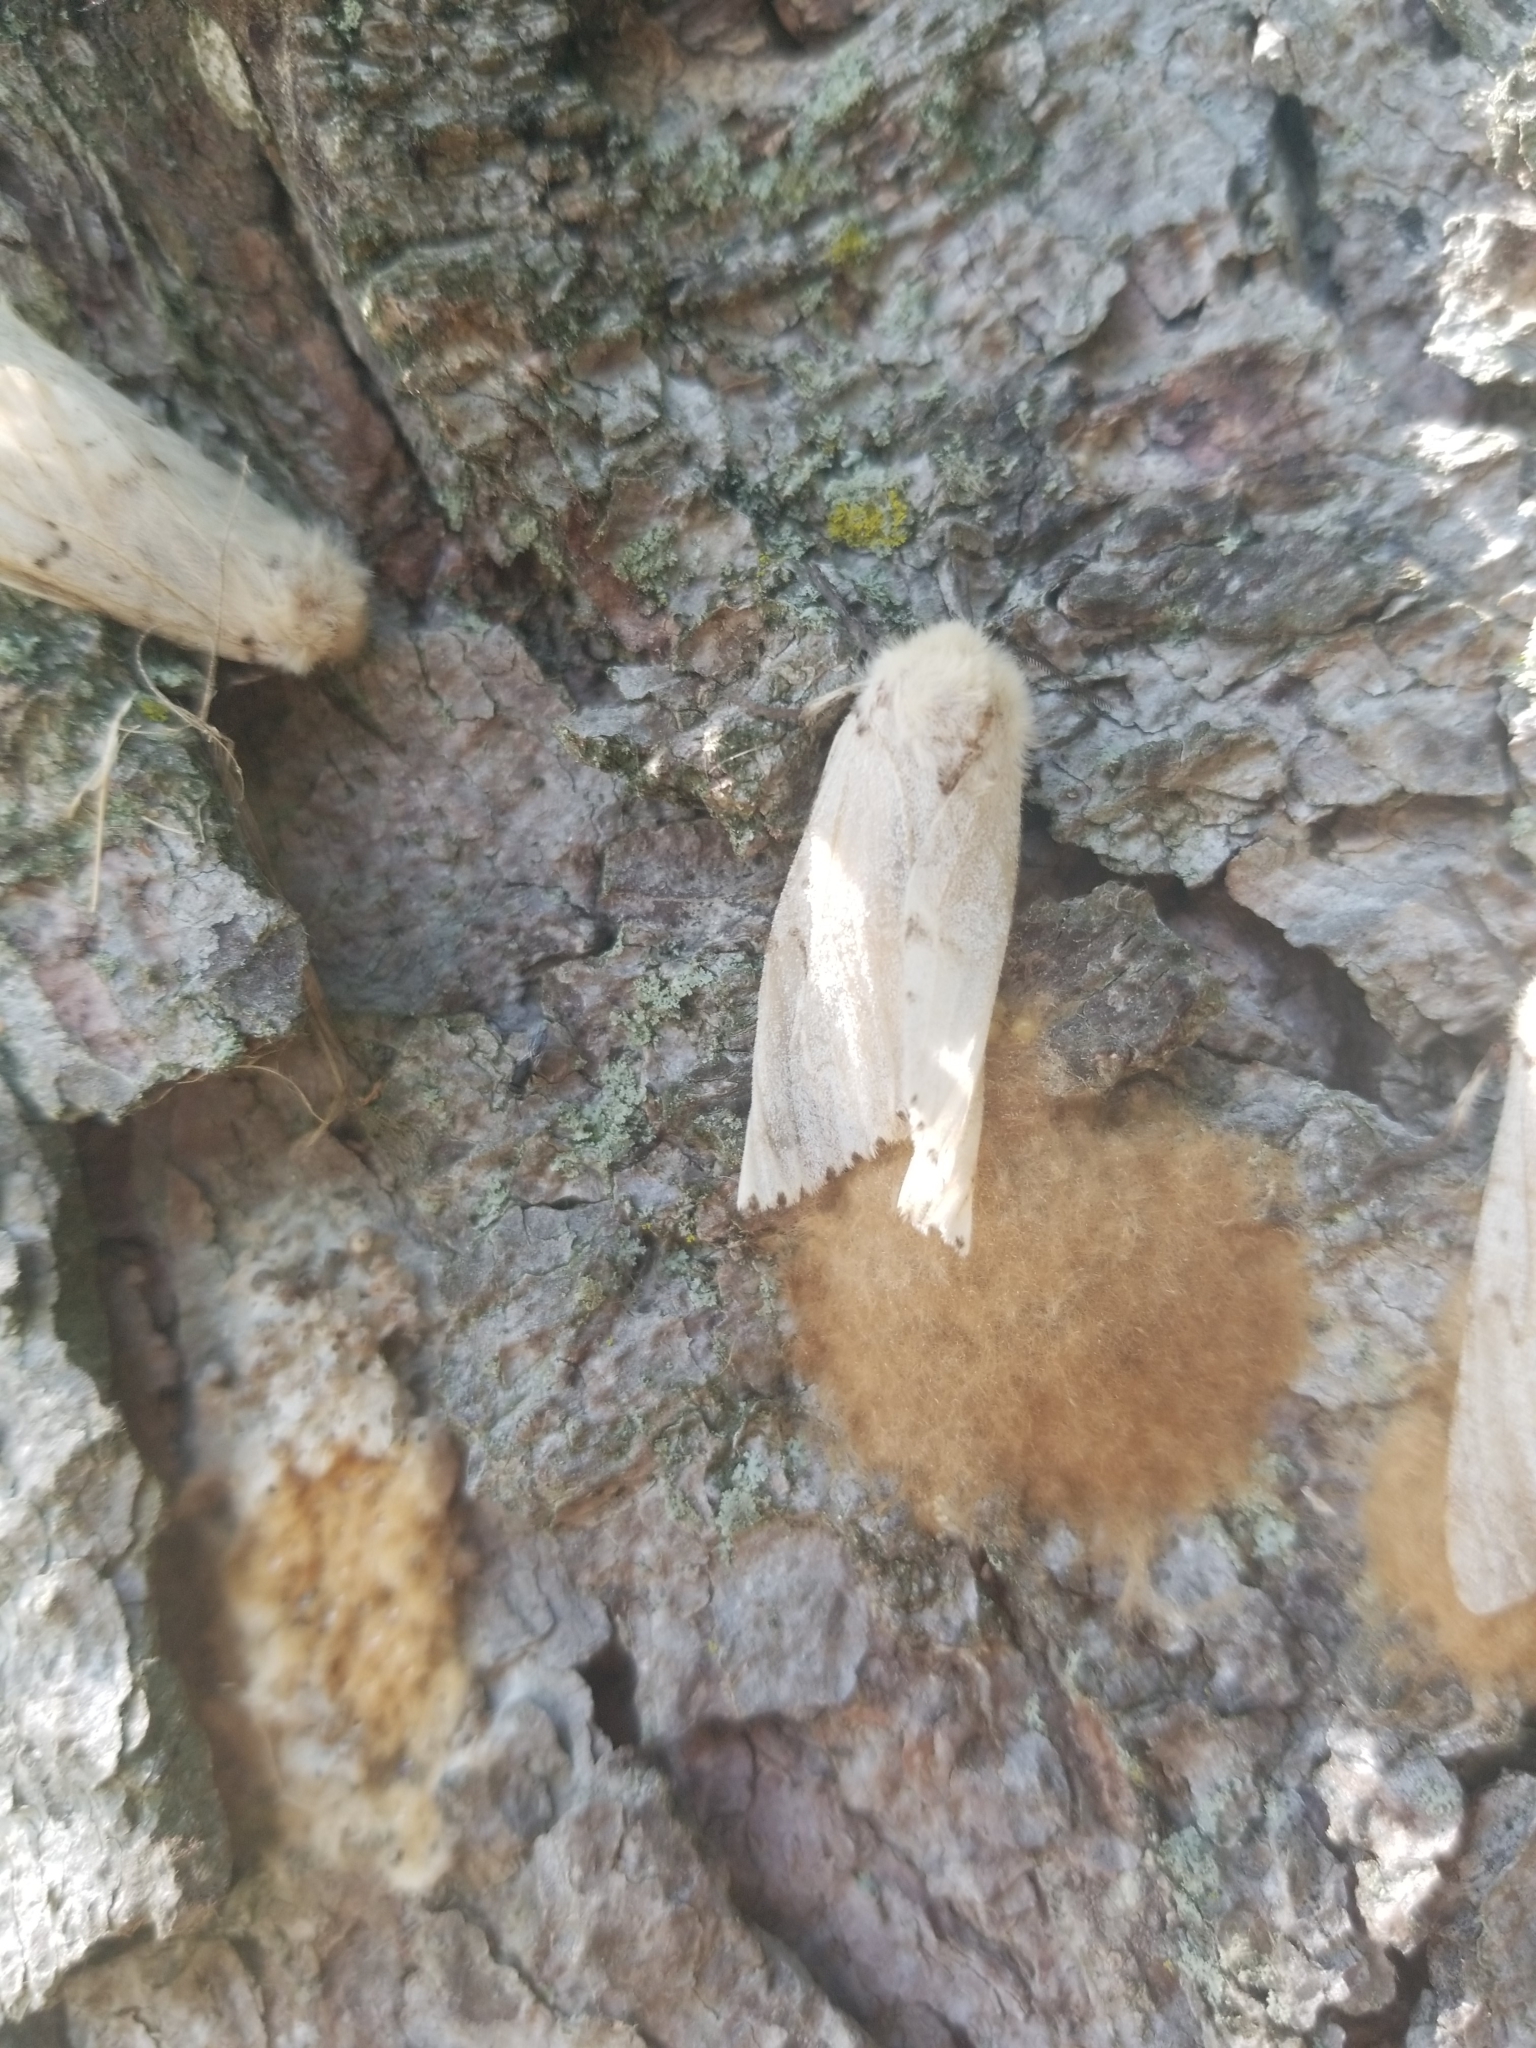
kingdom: Animalia
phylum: Arthropoda
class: Insecta
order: Lepidoptera
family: Erebidae
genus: Lymantria
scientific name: Lymantria dispar
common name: Gypsy moth
